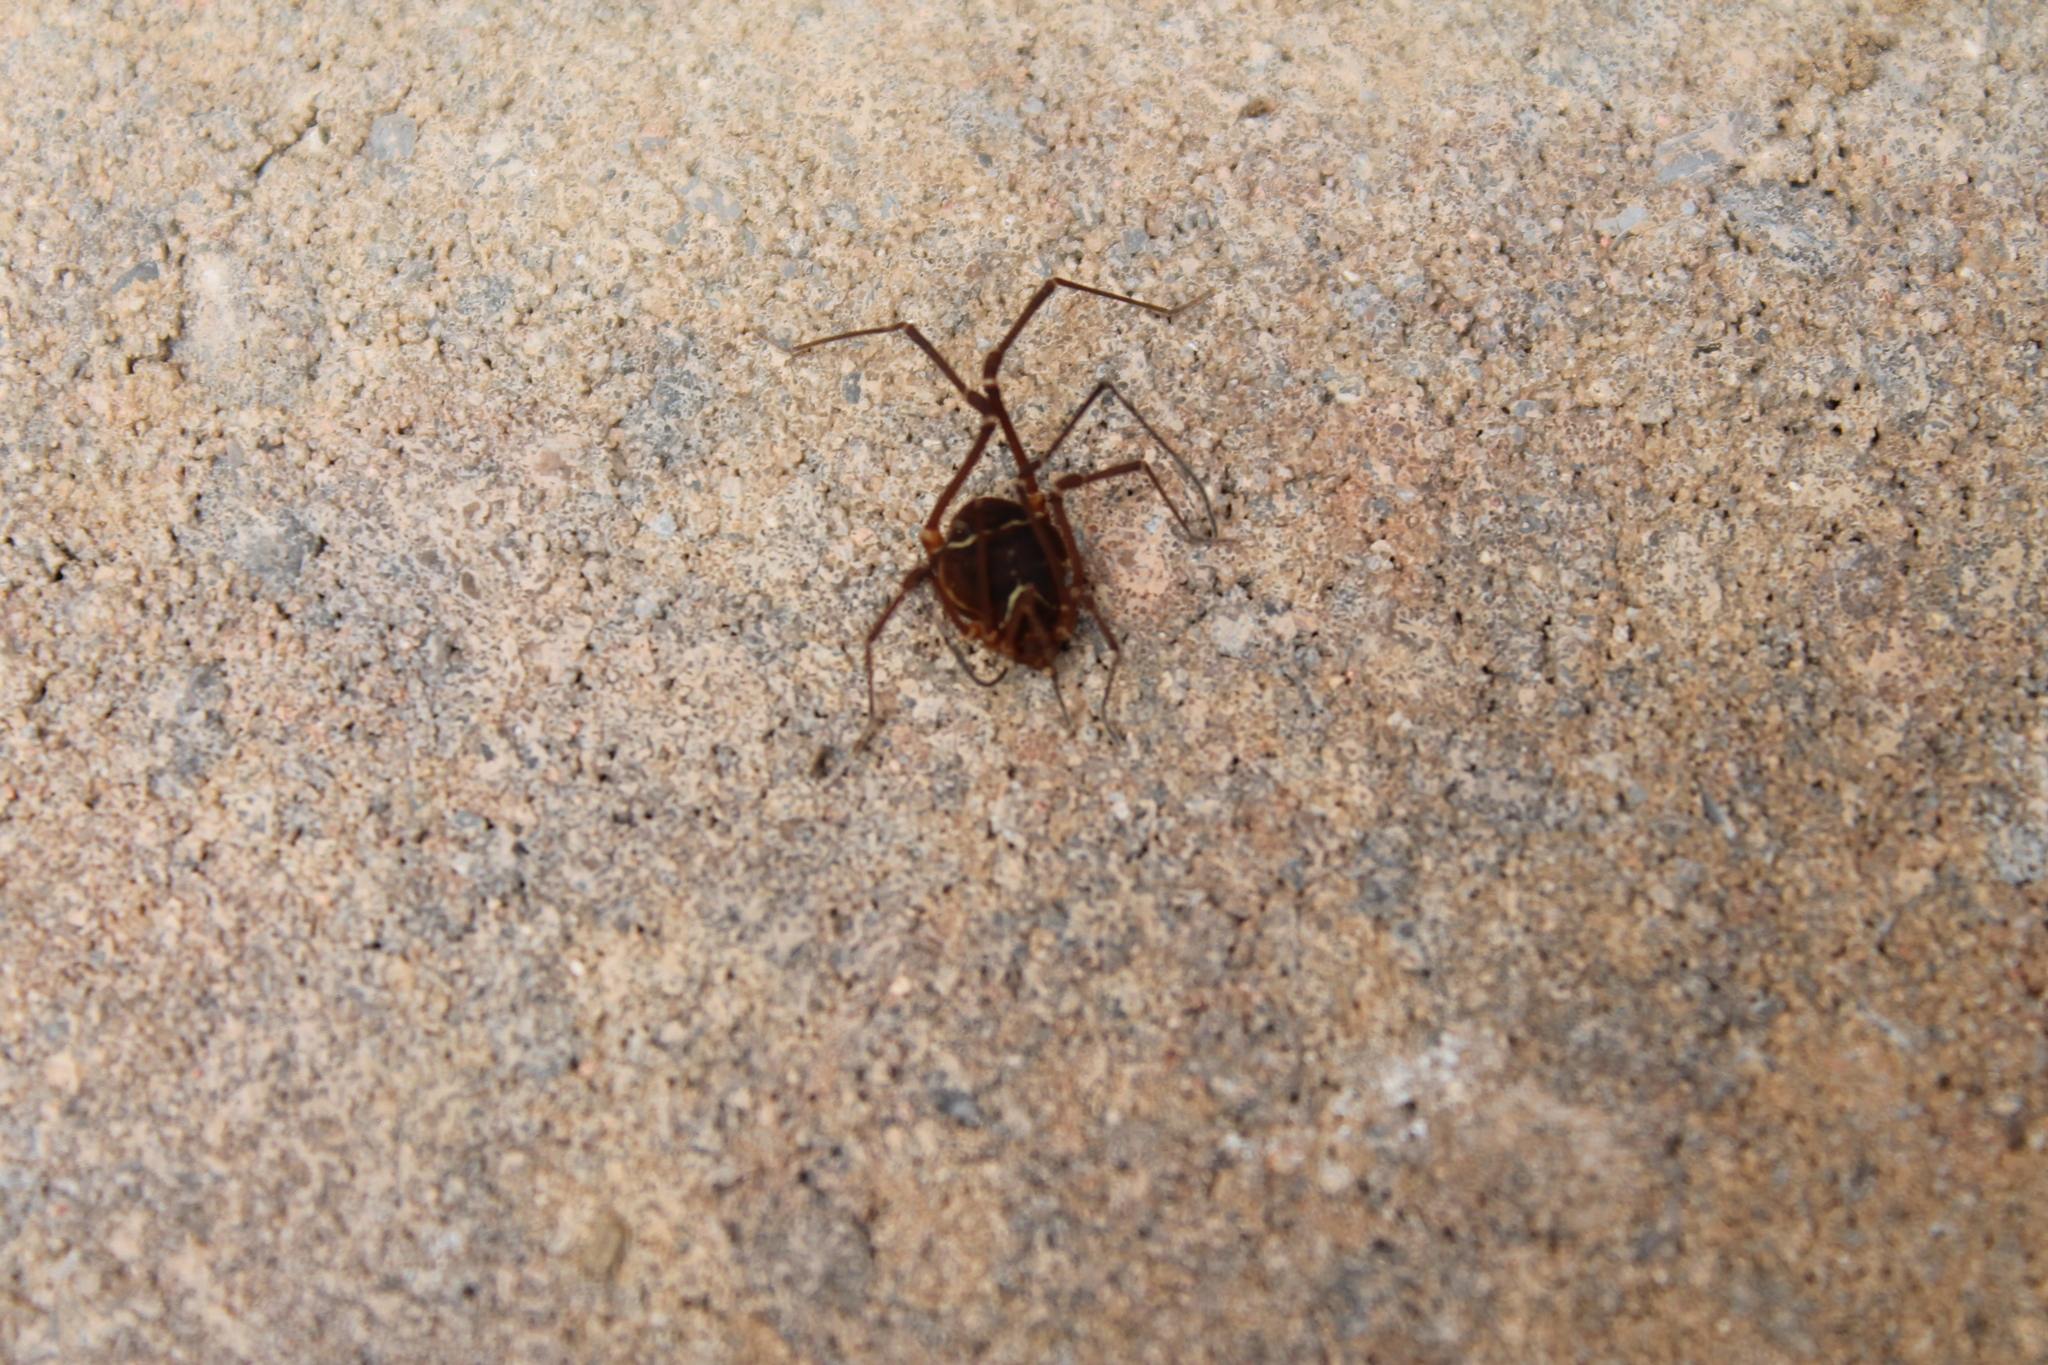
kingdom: Animalia
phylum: Arthropoda
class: Arachnida
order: Opiliones
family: Cosmetidae
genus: Libitioides
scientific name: Libitioides sayi
